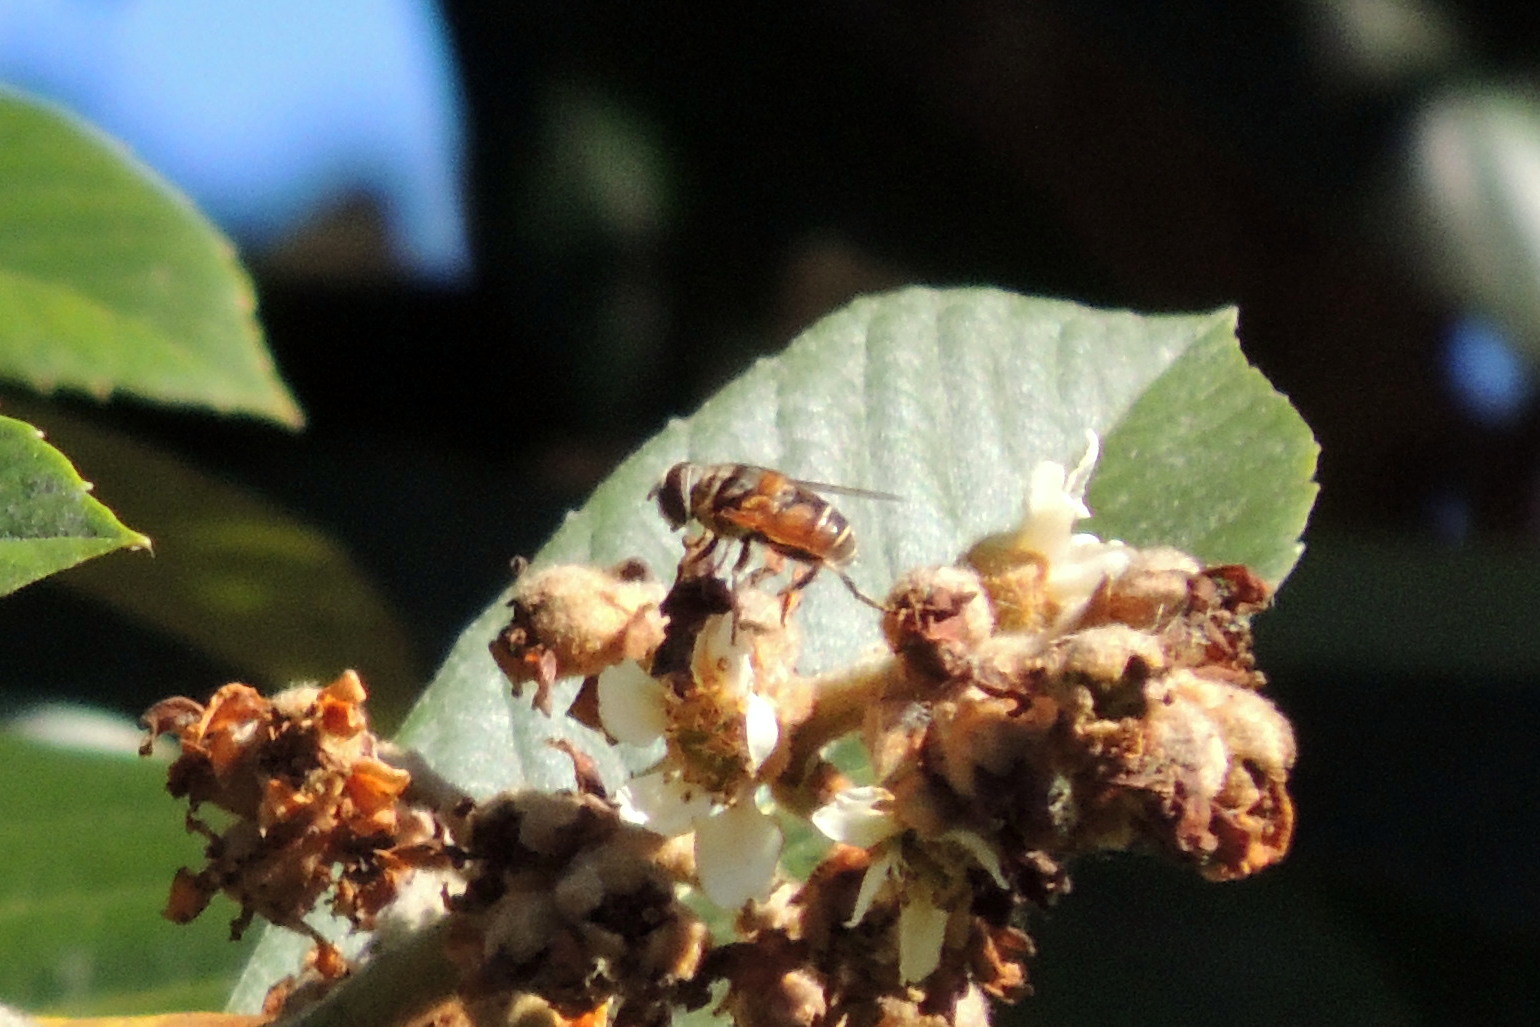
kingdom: Animalia
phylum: Arthropoda
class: Insecta
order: Diptera
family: Syrphidae
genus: Palpada
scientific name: Palpada vinetorum
